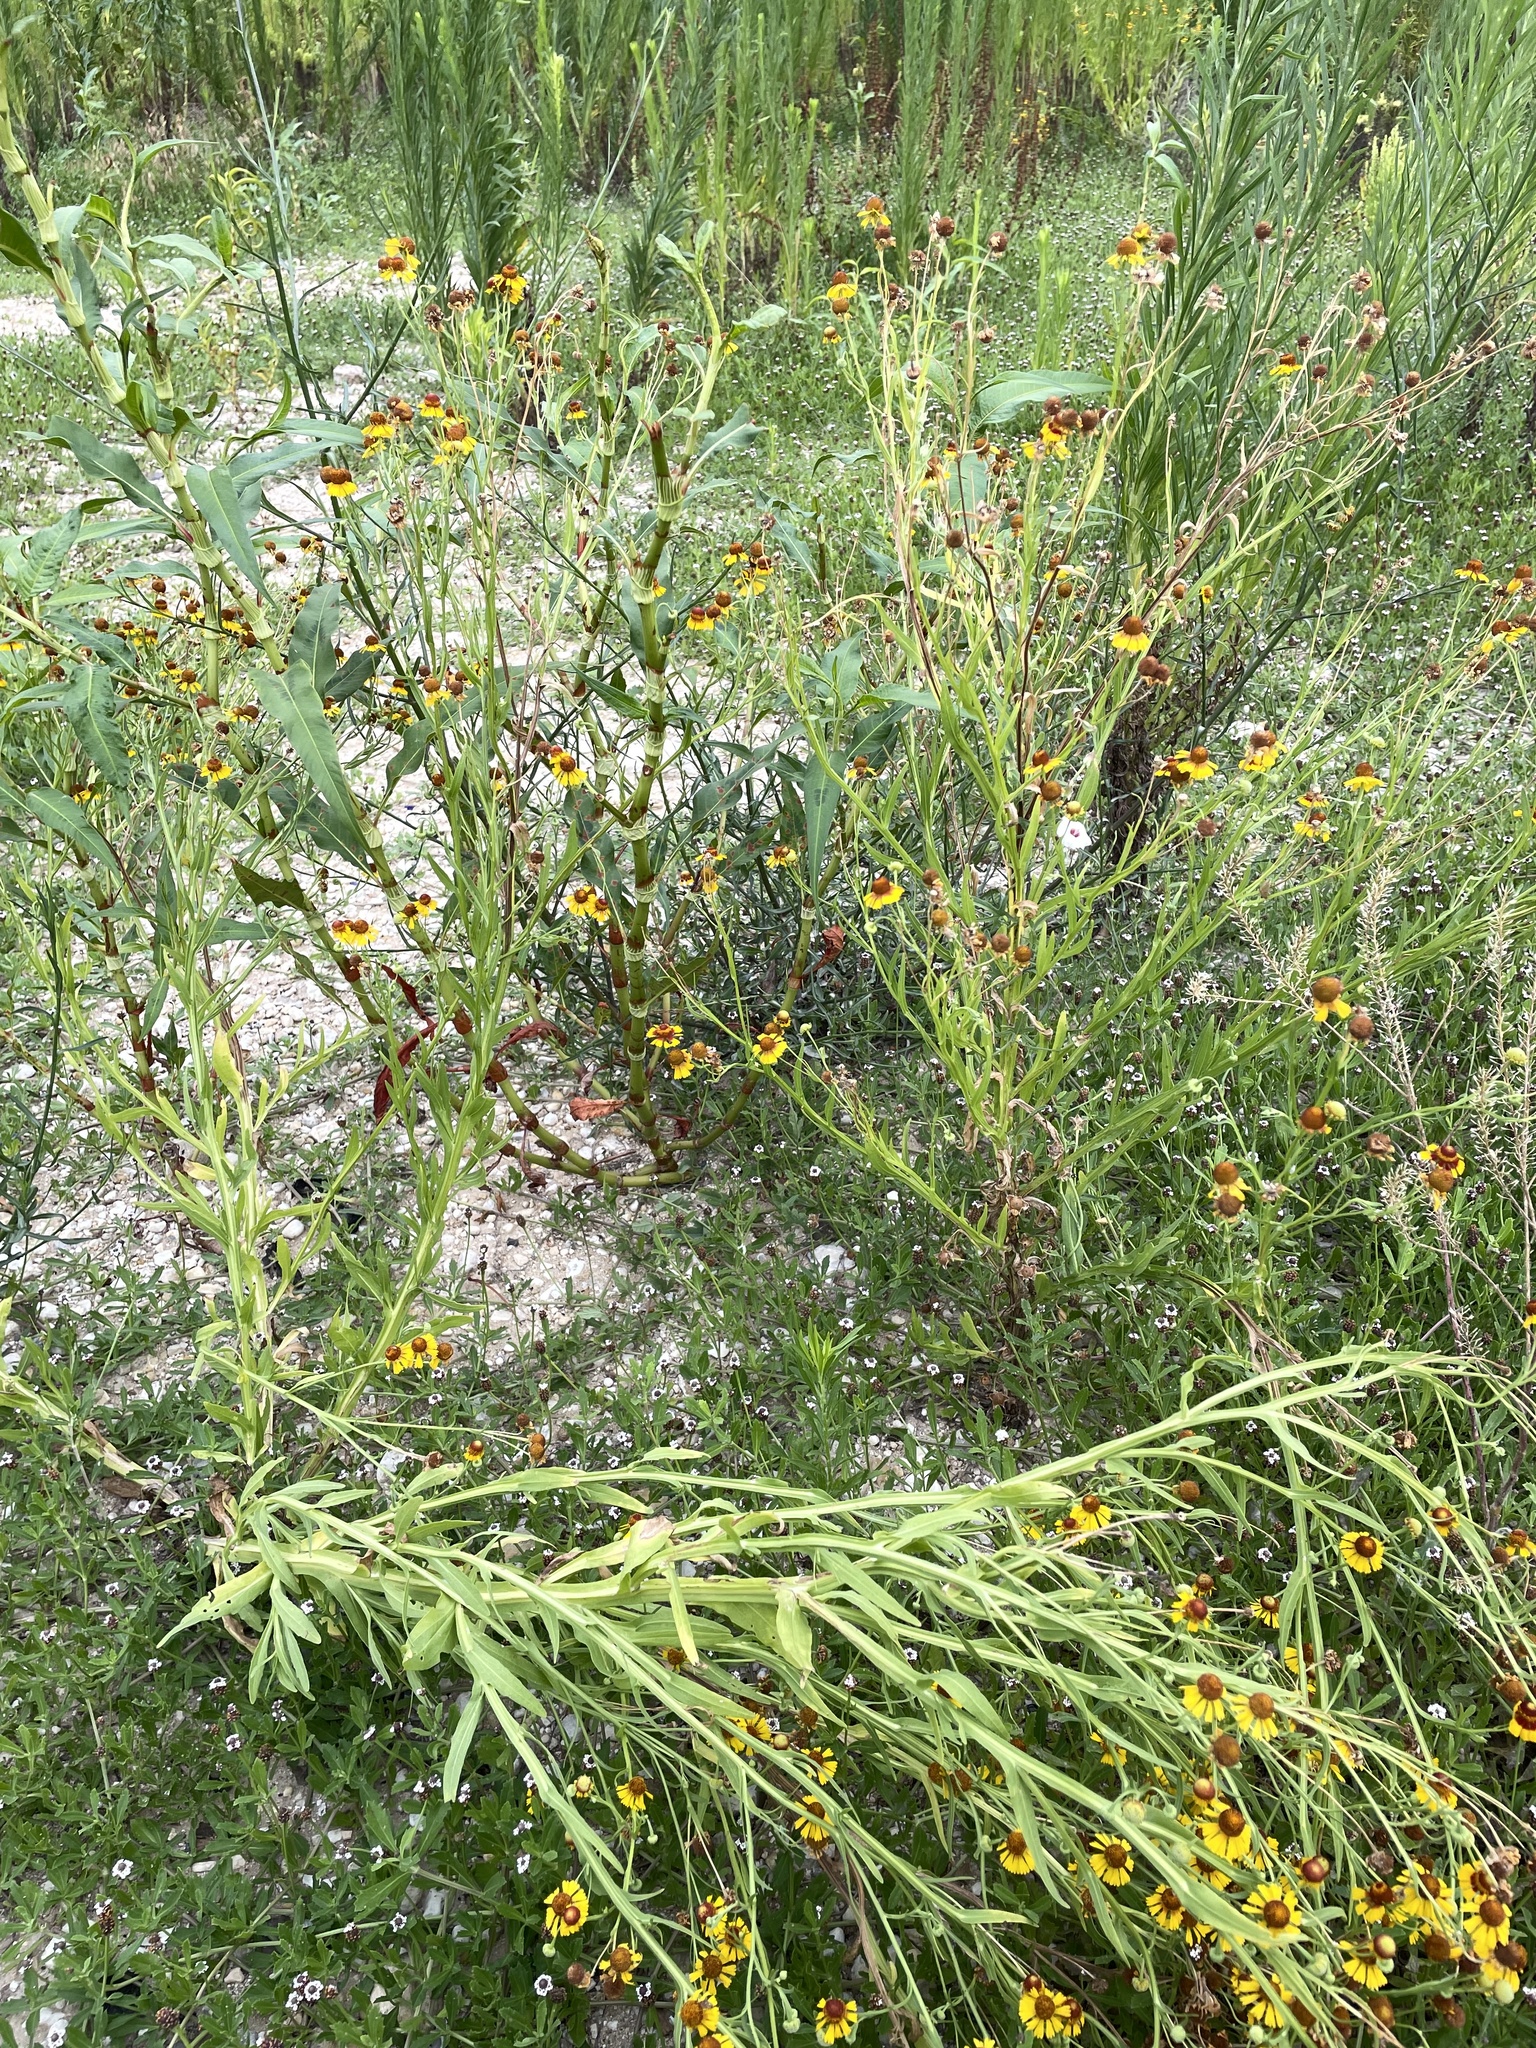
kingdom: Plantae
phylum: Tracheophyta
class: Magnoliopsida
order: Asterales
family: Asteraceae
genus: Helenium
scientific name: Helenium elegans
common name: Pretty sneezeweed
